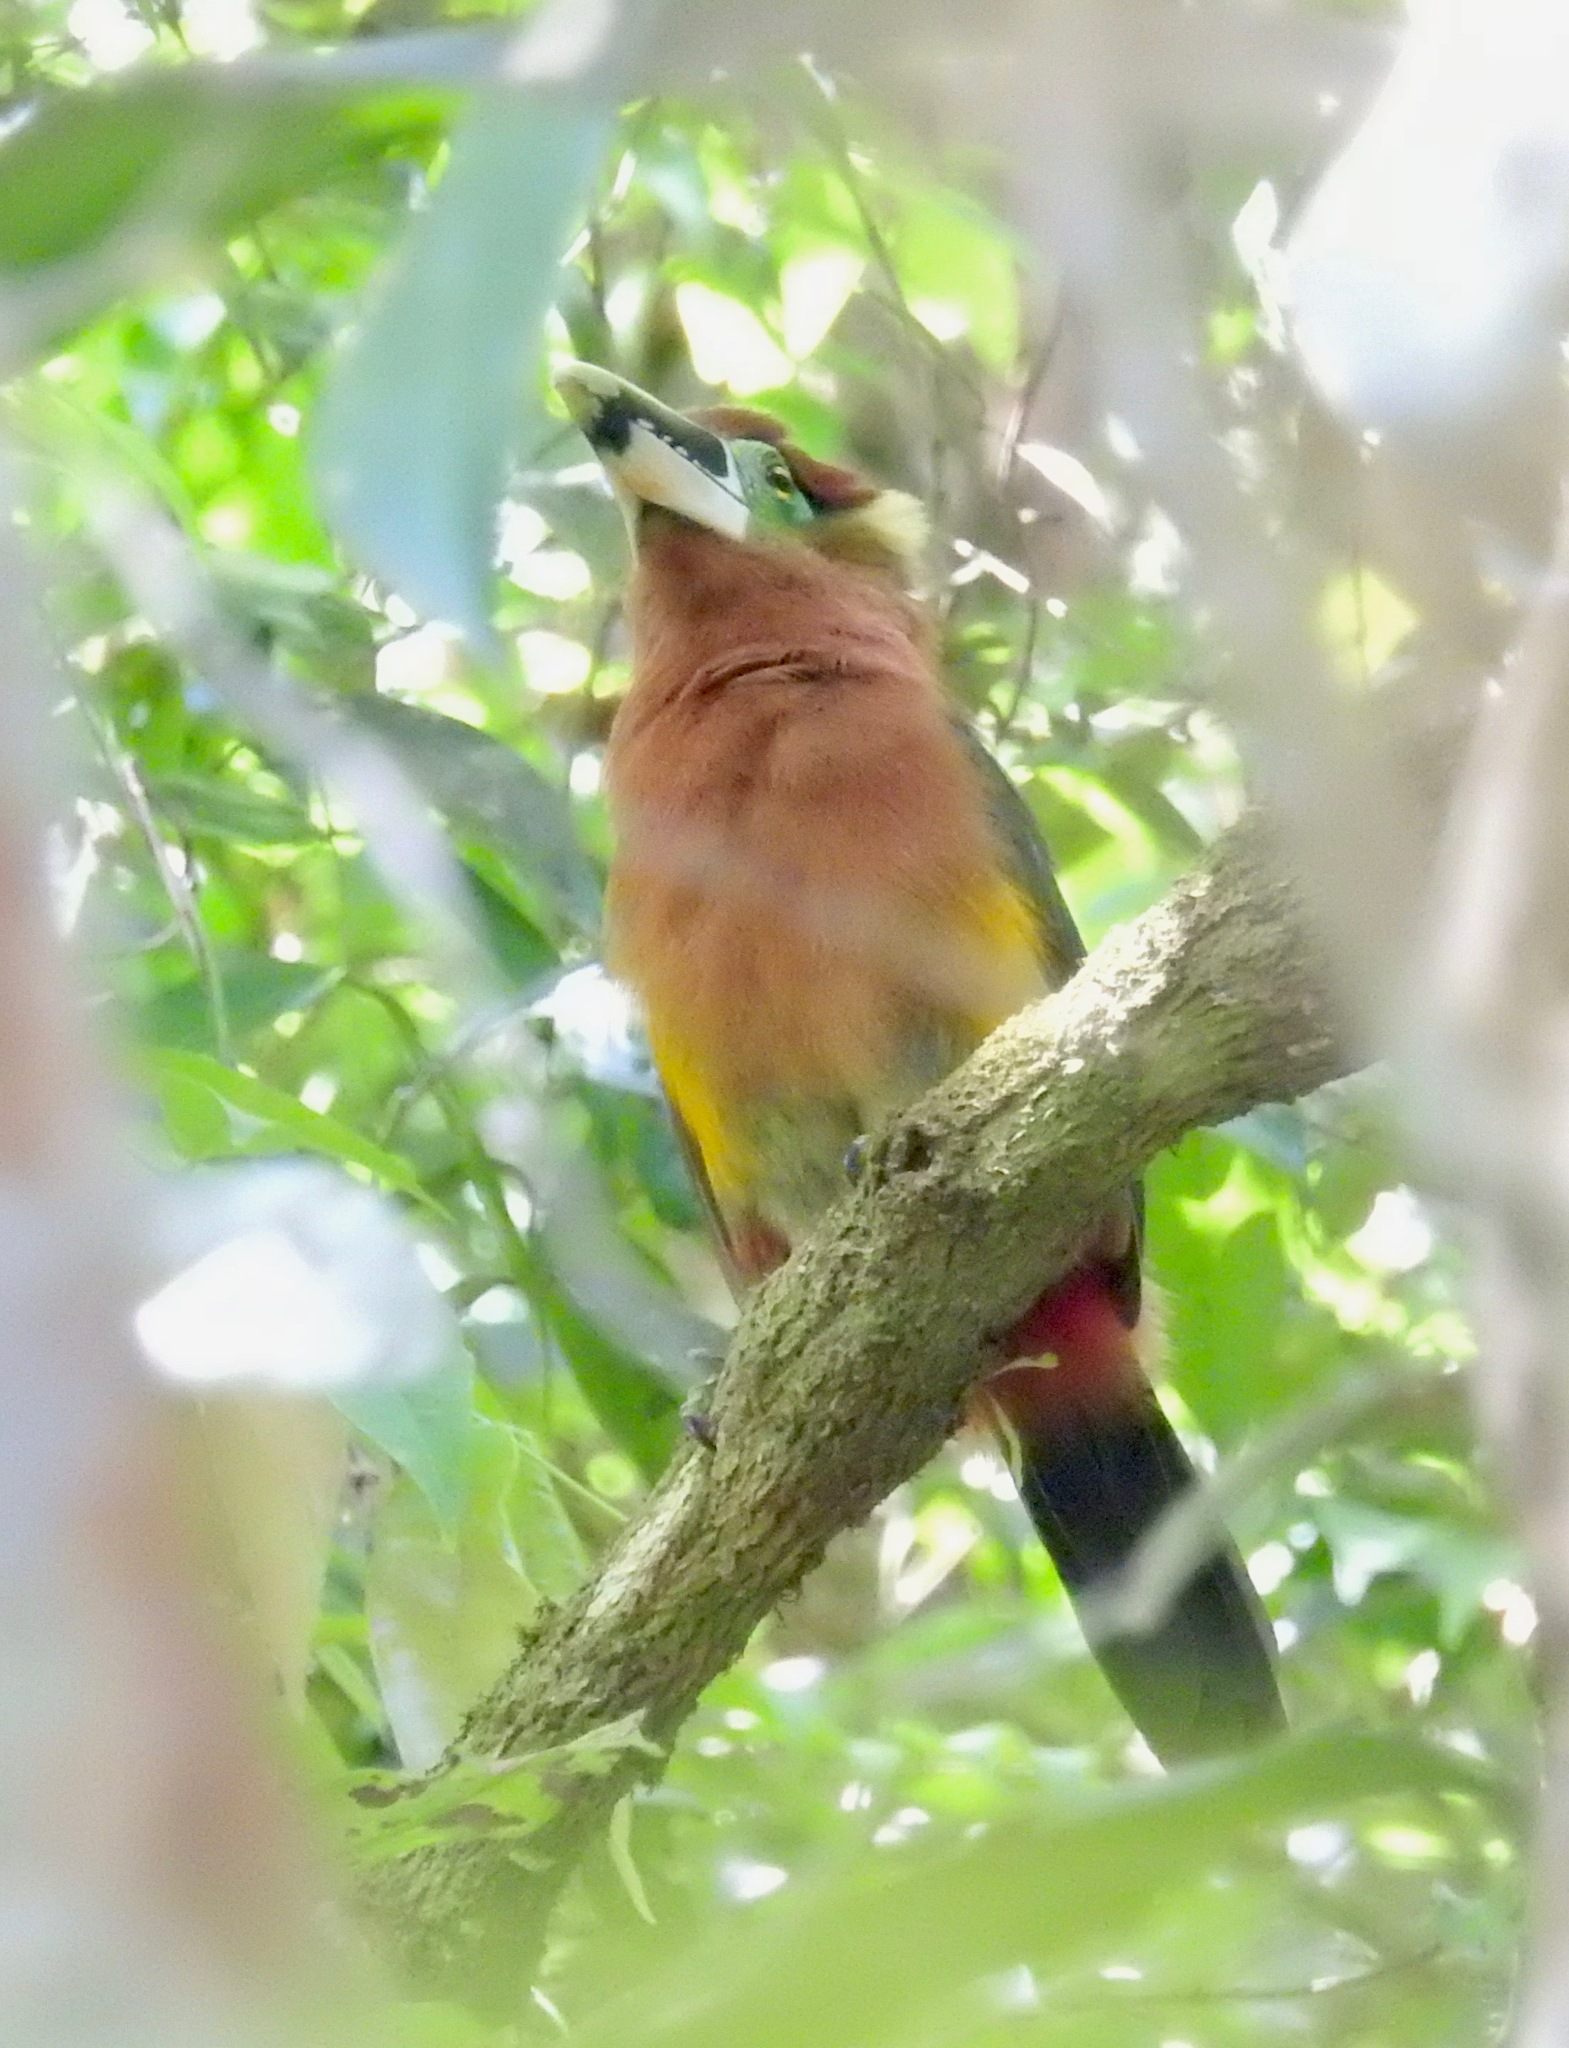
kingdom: Animalia
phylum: Chordata
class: Aves
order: Piciformes
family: Ramphastidae
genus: Selenidera
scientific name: Selenidera gouldii
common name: Gould's toucanet
